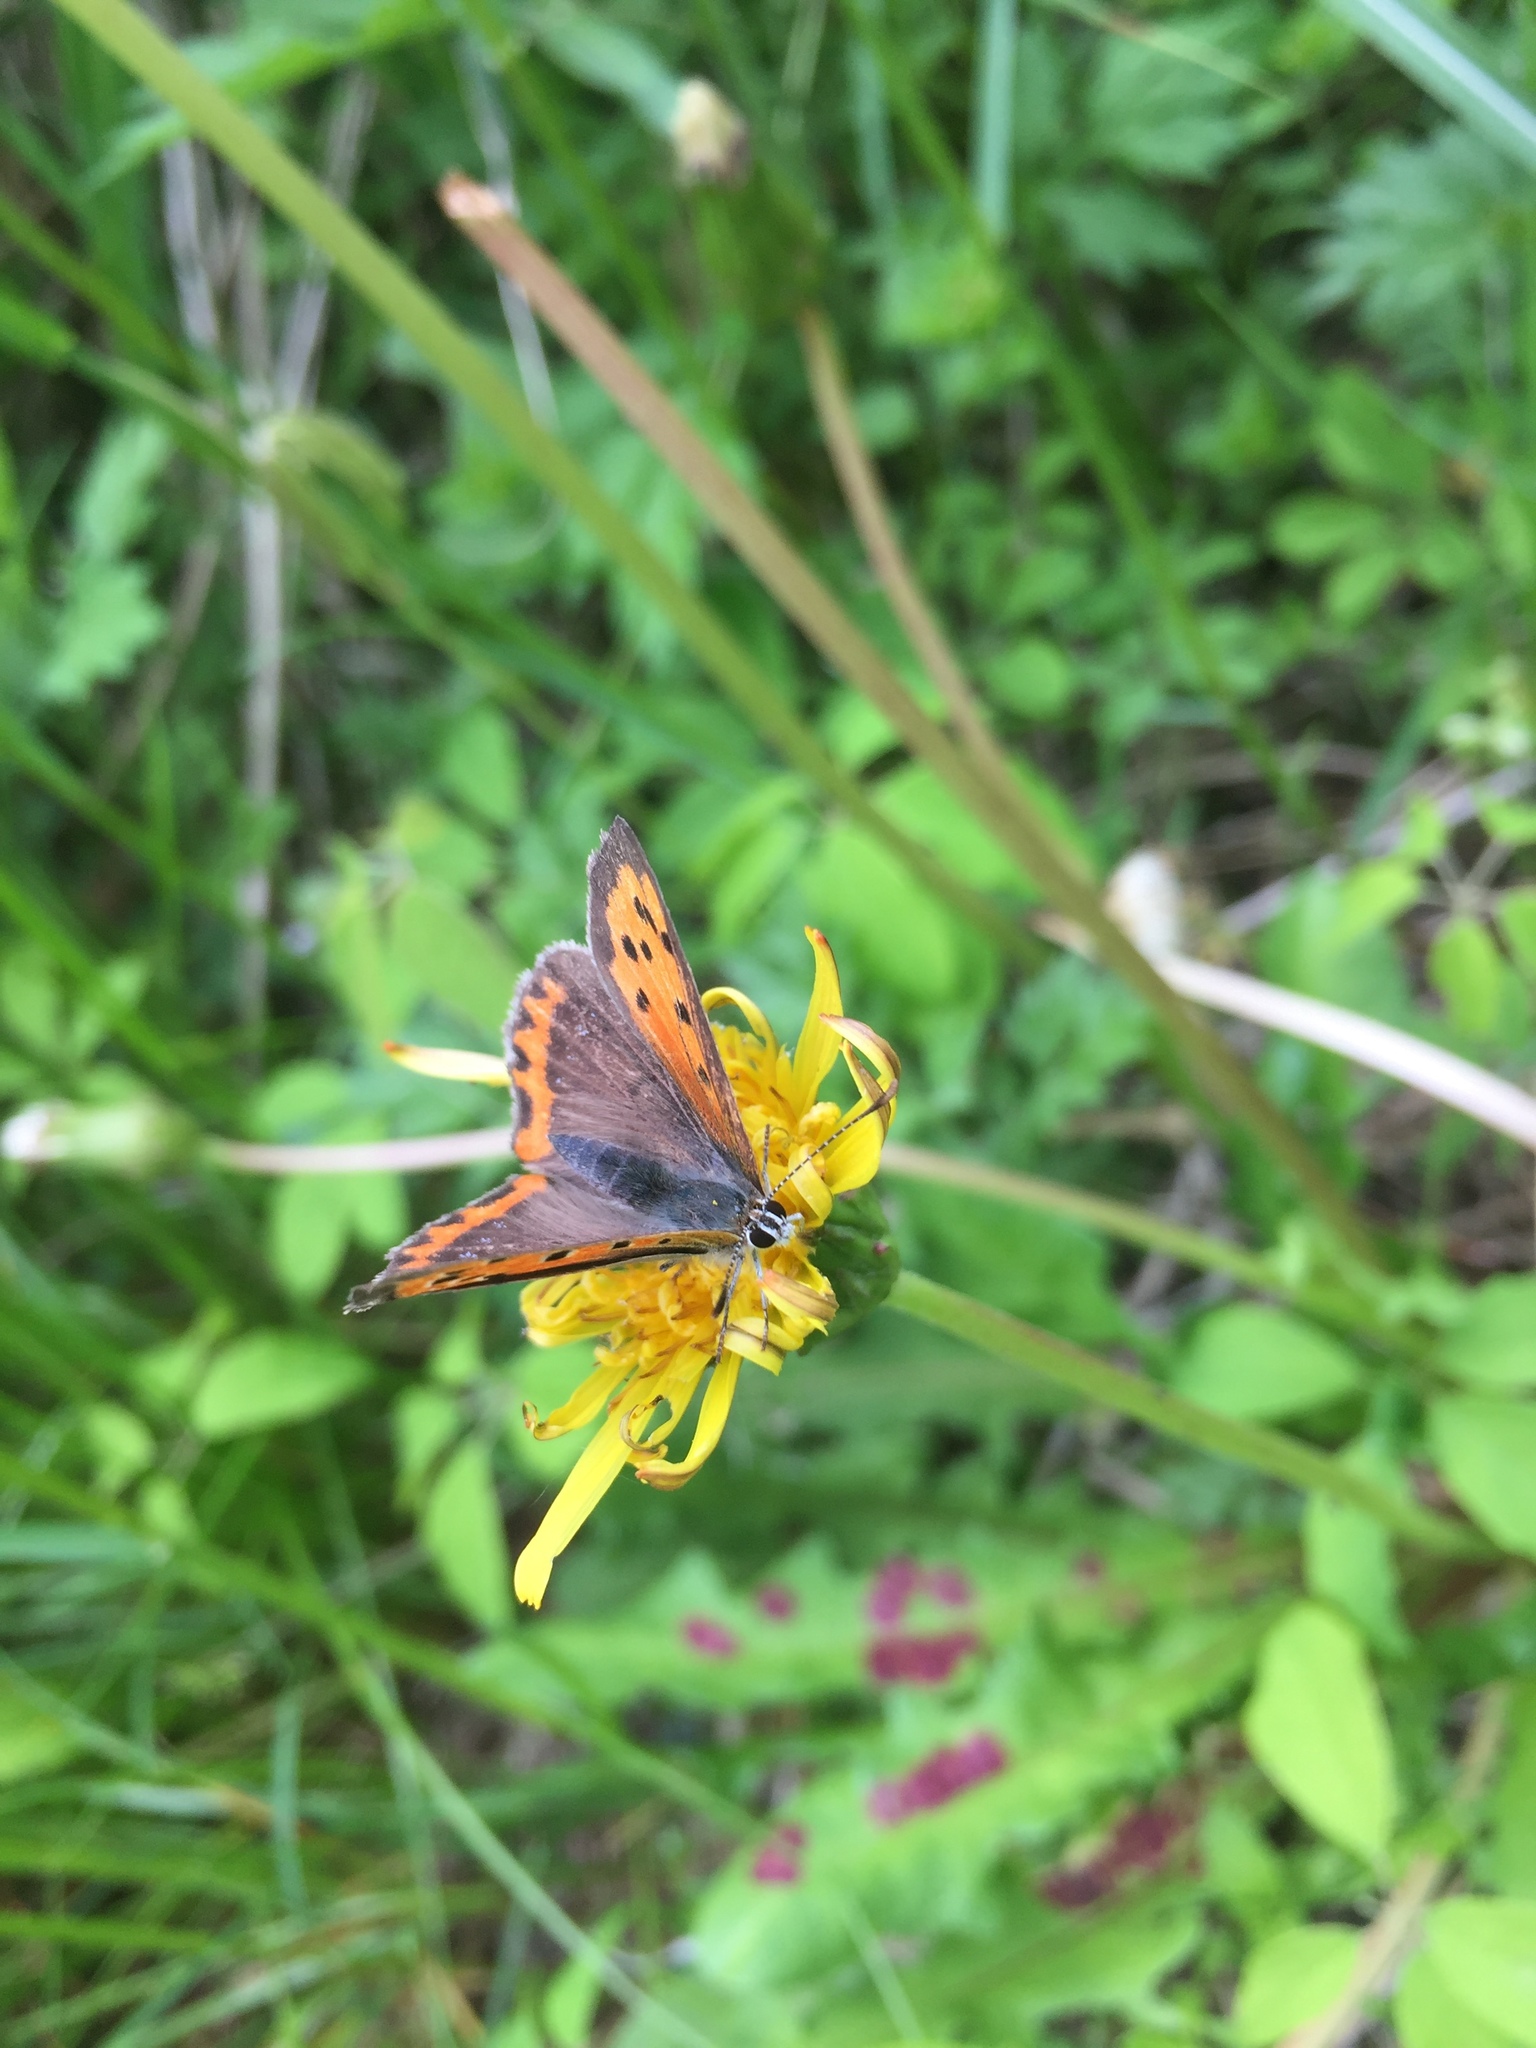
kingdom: Animalia
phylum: Arthropoda
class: Insecta
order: Lepidoptera
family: Lycaenidae
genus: Lycaena
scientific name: Lycaena phlaeas
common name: Small copper
